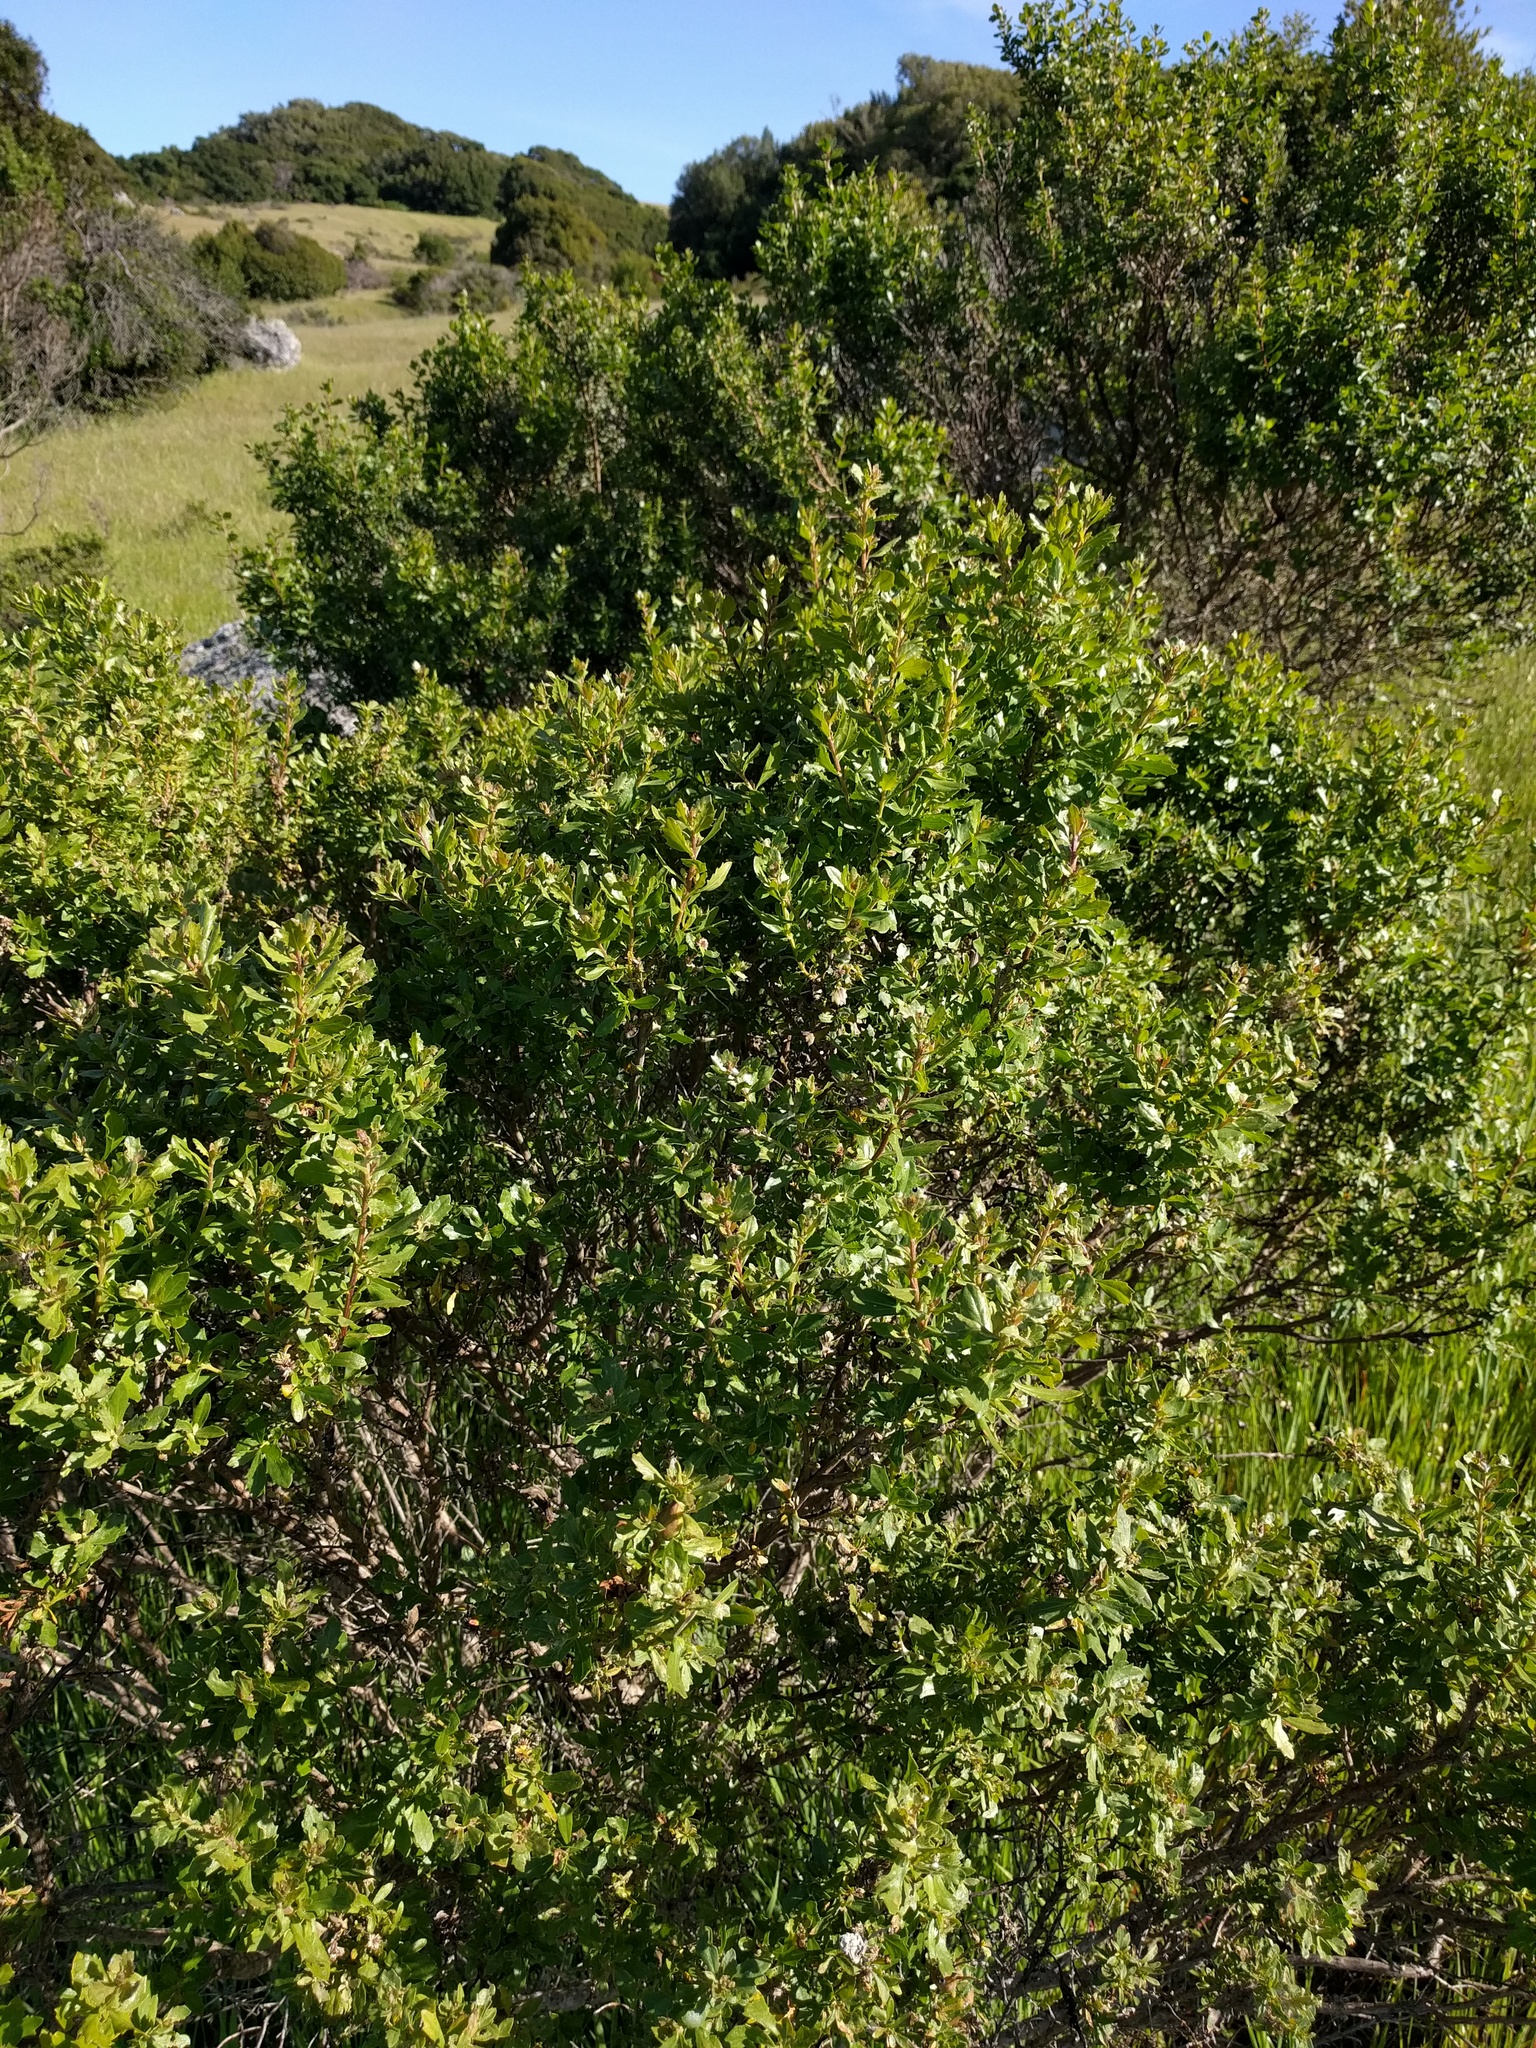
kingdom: Plantae
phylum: Tracheophyta
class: Magnoliopsida
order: Asterales
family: Asteraceae
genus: Baccharis
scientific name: Baccharis pilularis
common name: Coyotebrush
